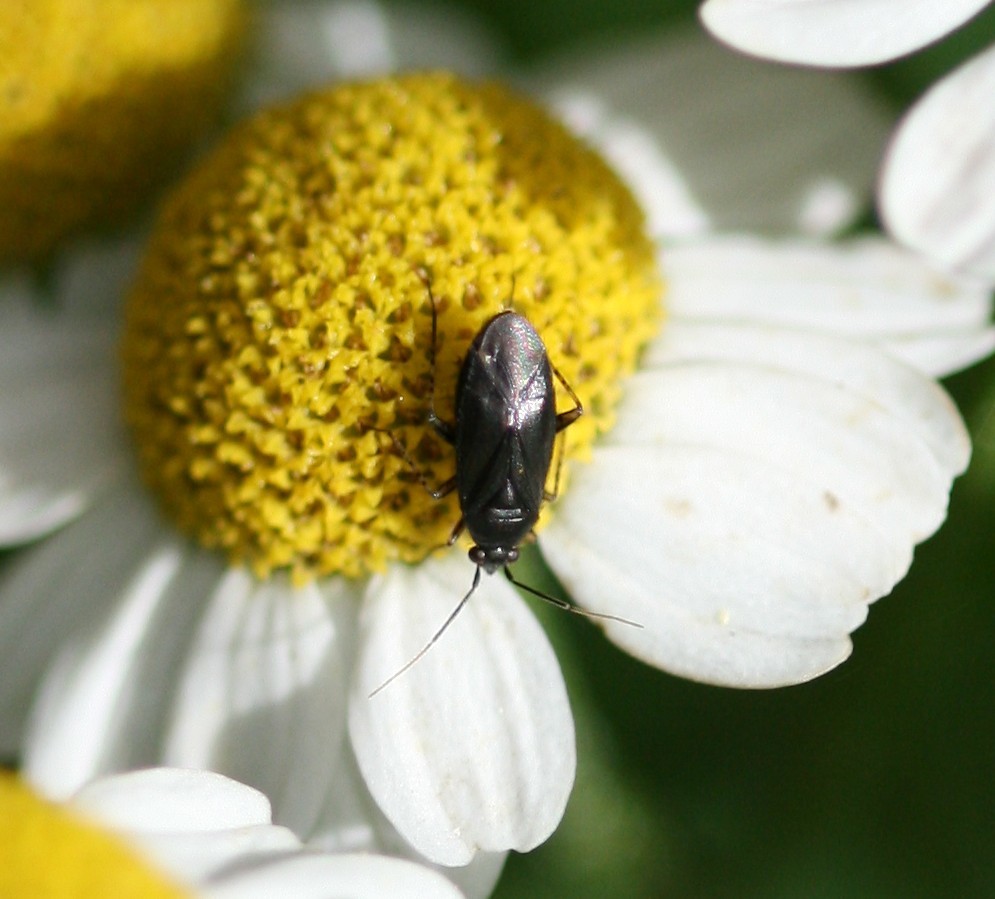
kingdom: Animalia
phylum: Arthropoda
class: Insecta
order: Hemiptera
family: Miridae
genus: Plagiognathus
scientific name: Plagiognathus arbustorum
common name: Plant bug
